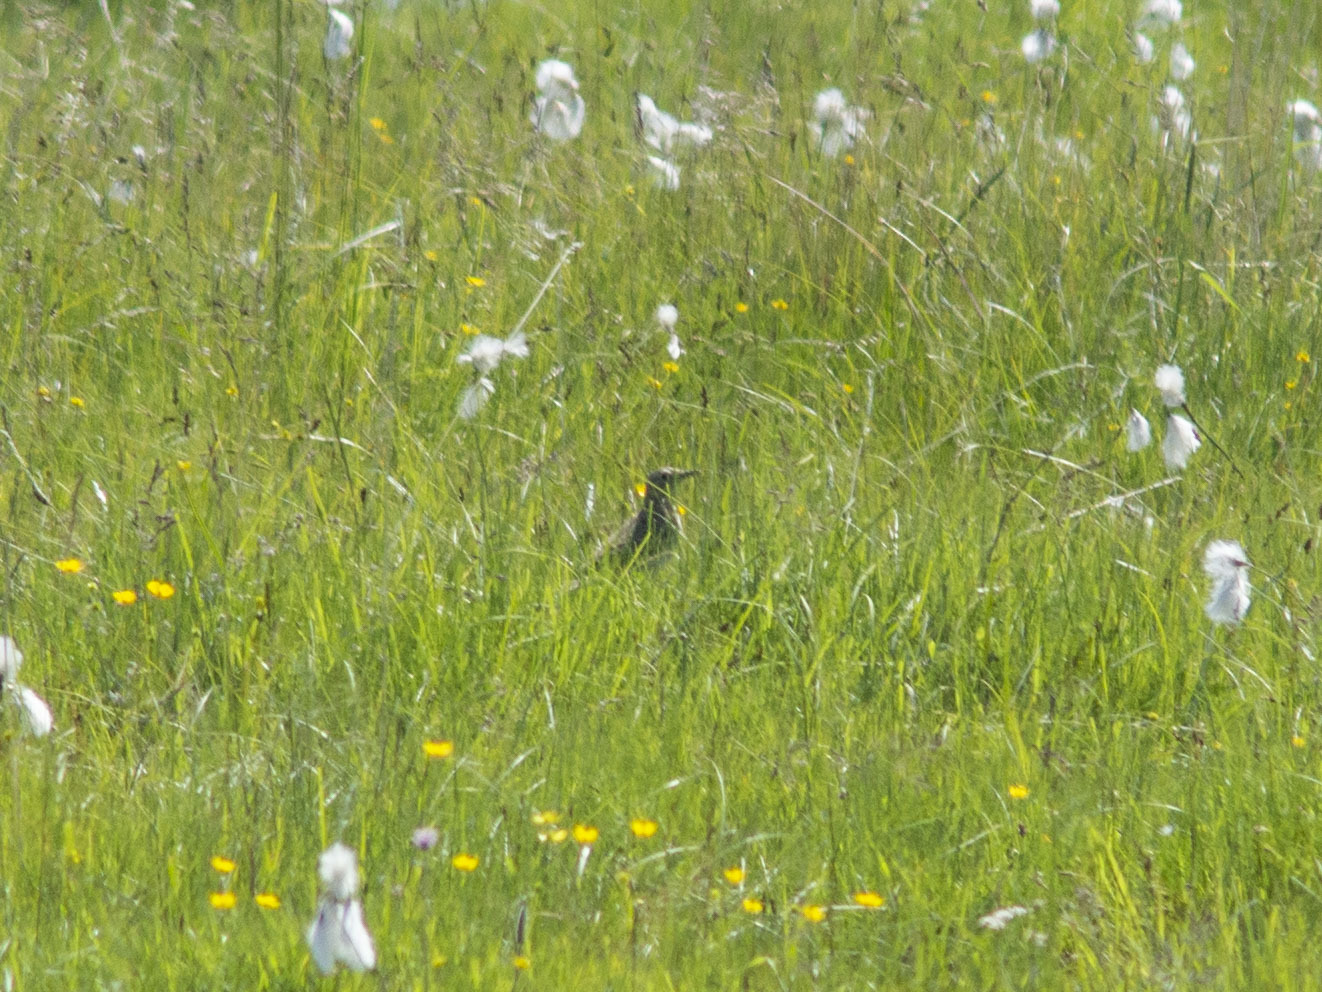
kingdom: Animalia
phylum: Chordata
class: Aves
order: Passeriformes
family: Motacillidae
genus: Anthus
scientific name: Anthus richardi
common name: Richard's pipit
